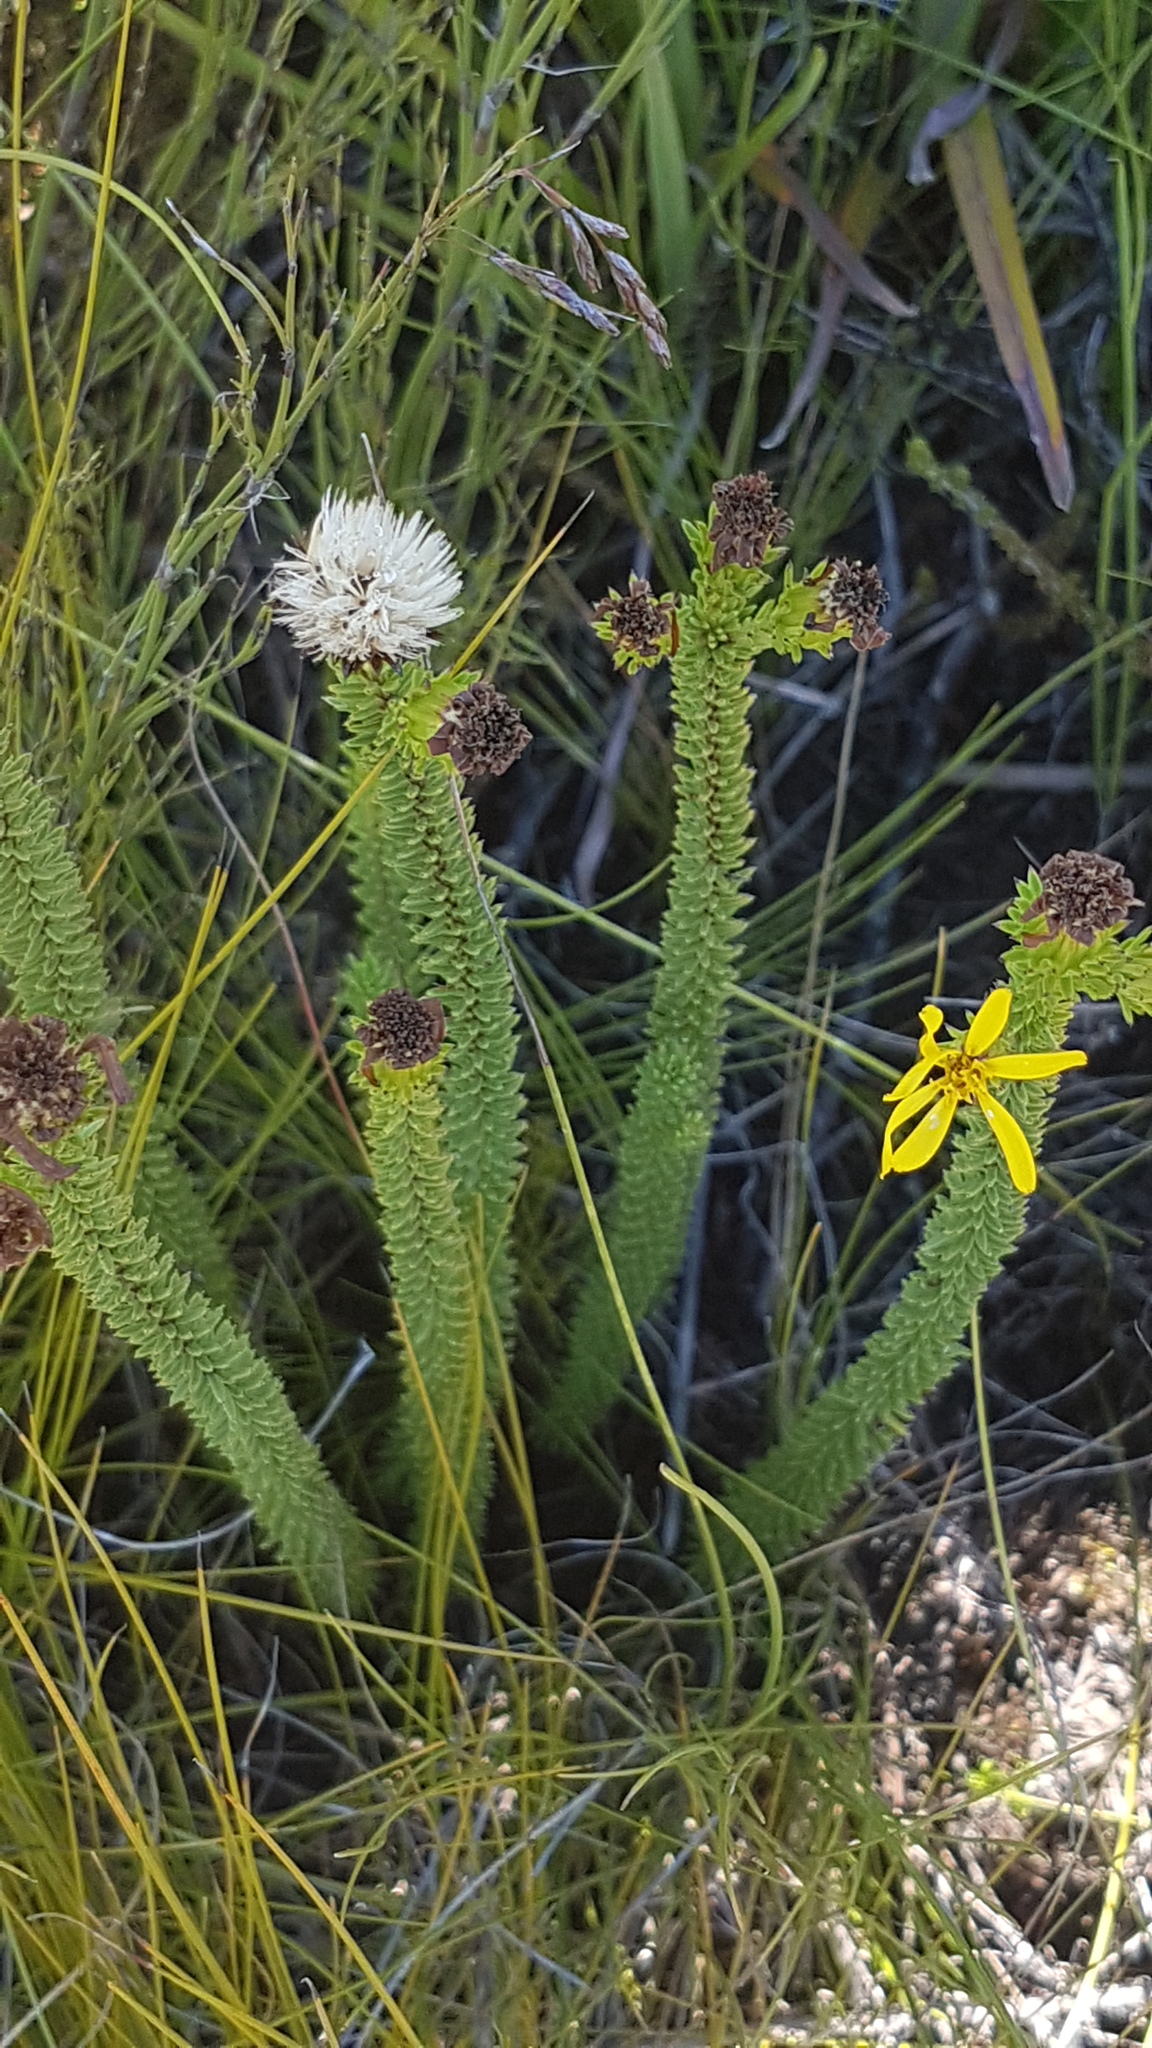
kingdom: Plantae
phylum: Tracheophyta
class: Magnoliopsida
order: Asterales
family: Asteraceae
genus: Senecio
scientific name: Senecio pinifolius
